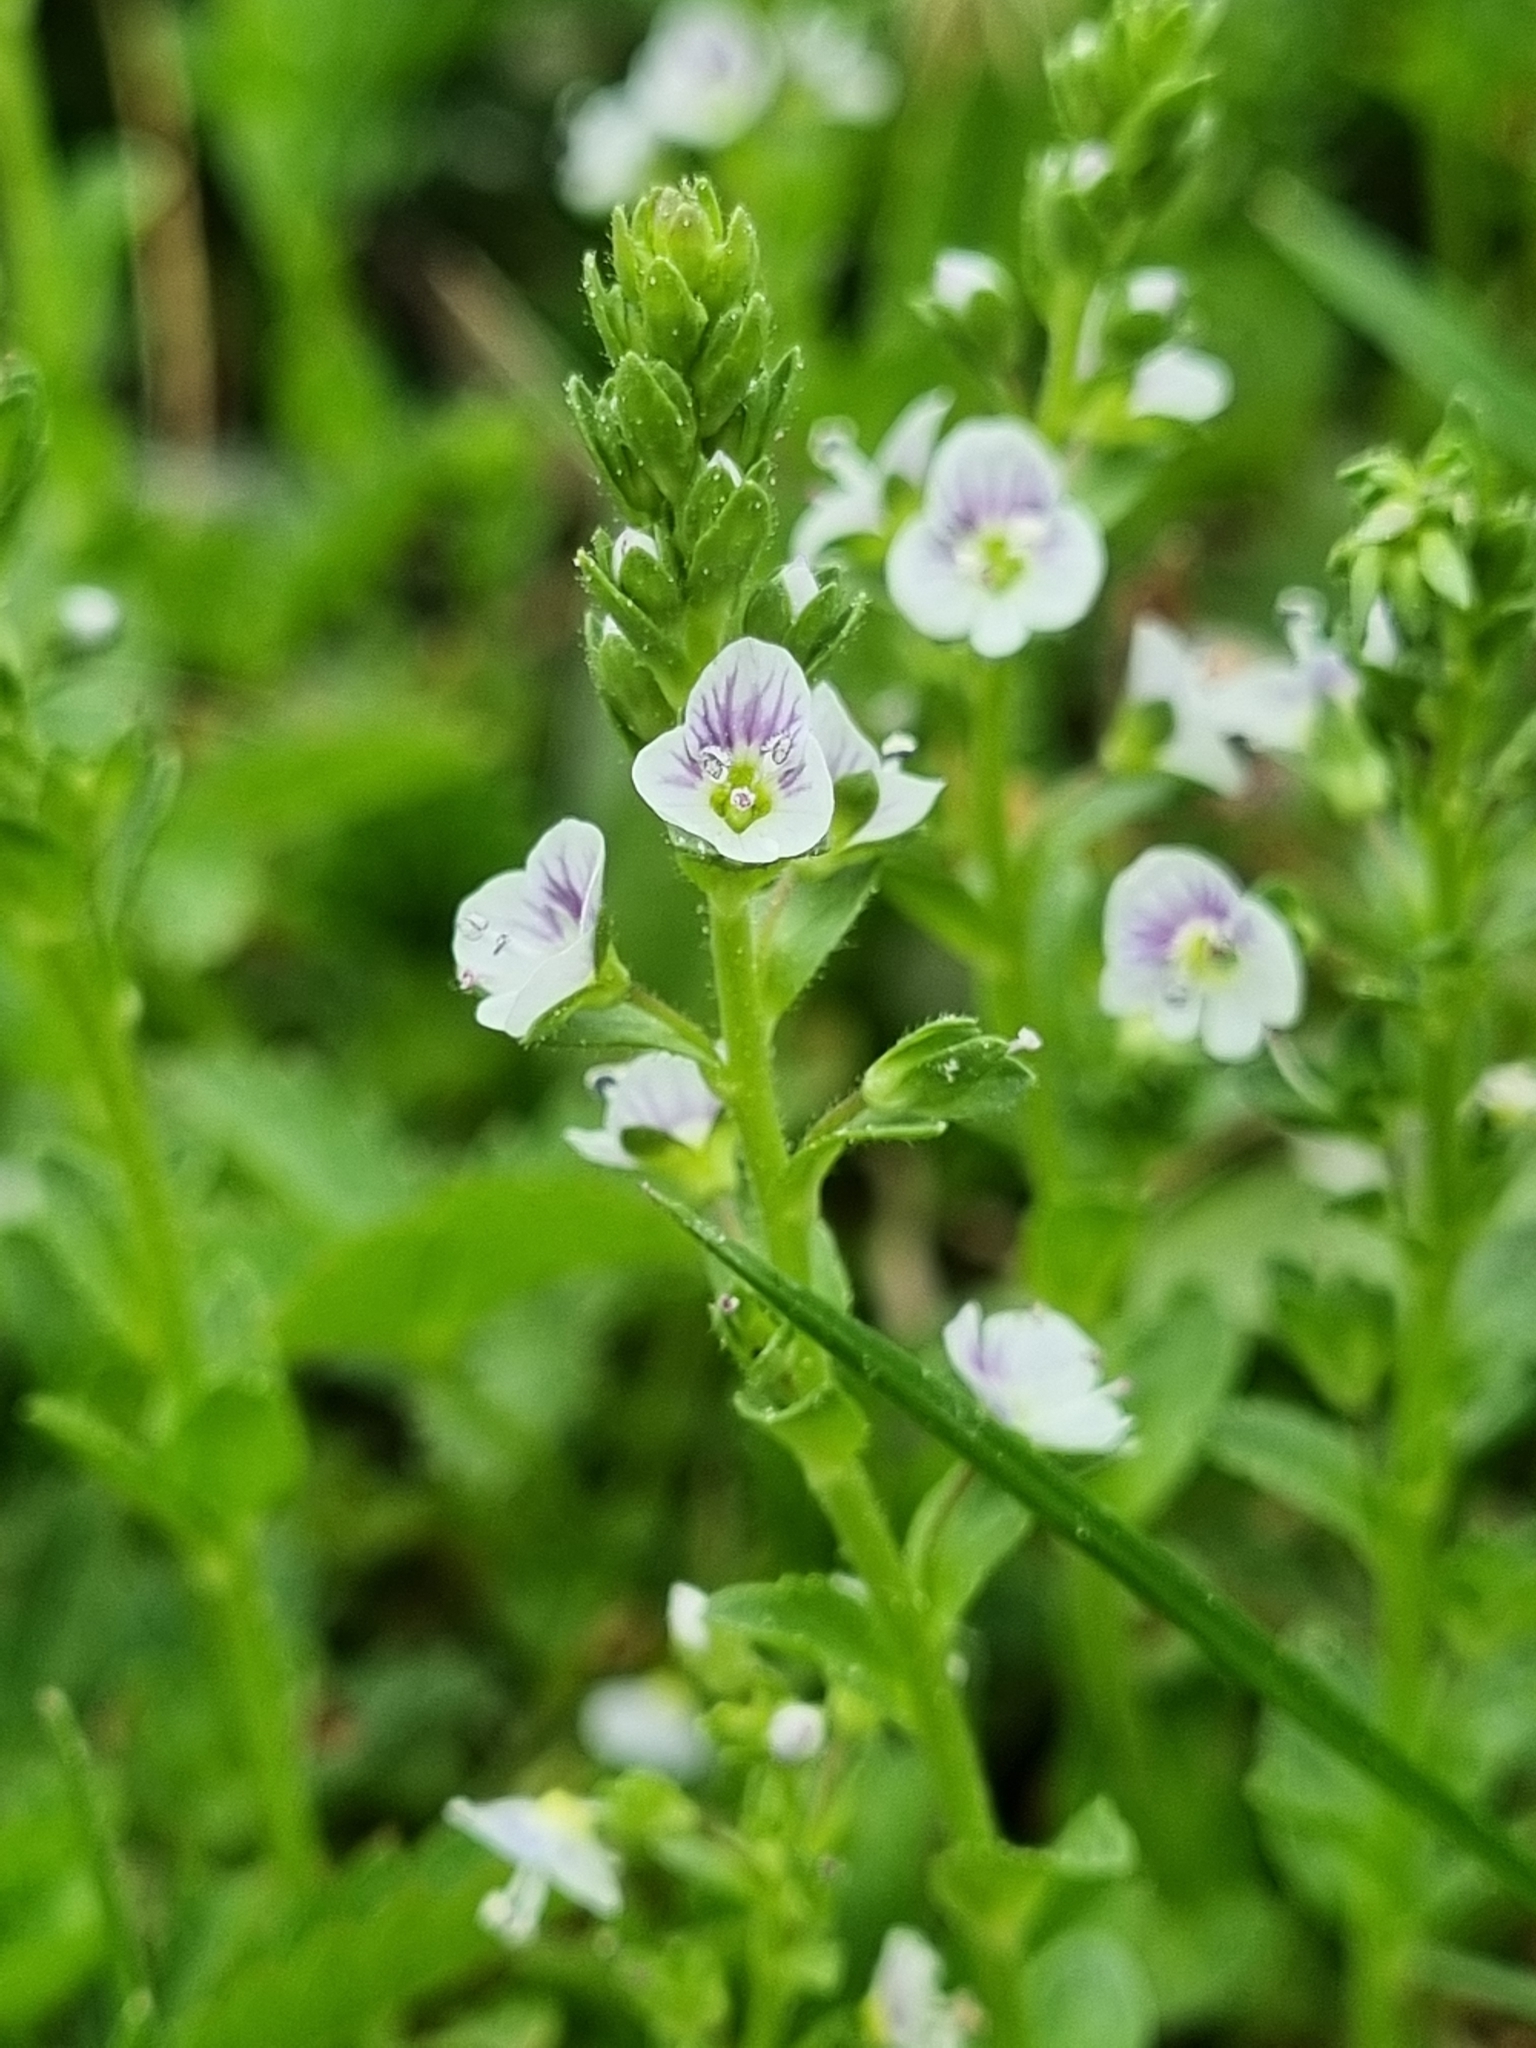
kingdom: Plantae
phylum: Tracheophyta
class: Magnoliopsida
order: Lamiales
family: Plantaginaceae
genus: Veronica
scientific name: Veronica serpyllifolia
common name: Thyme-leaved speedwell
